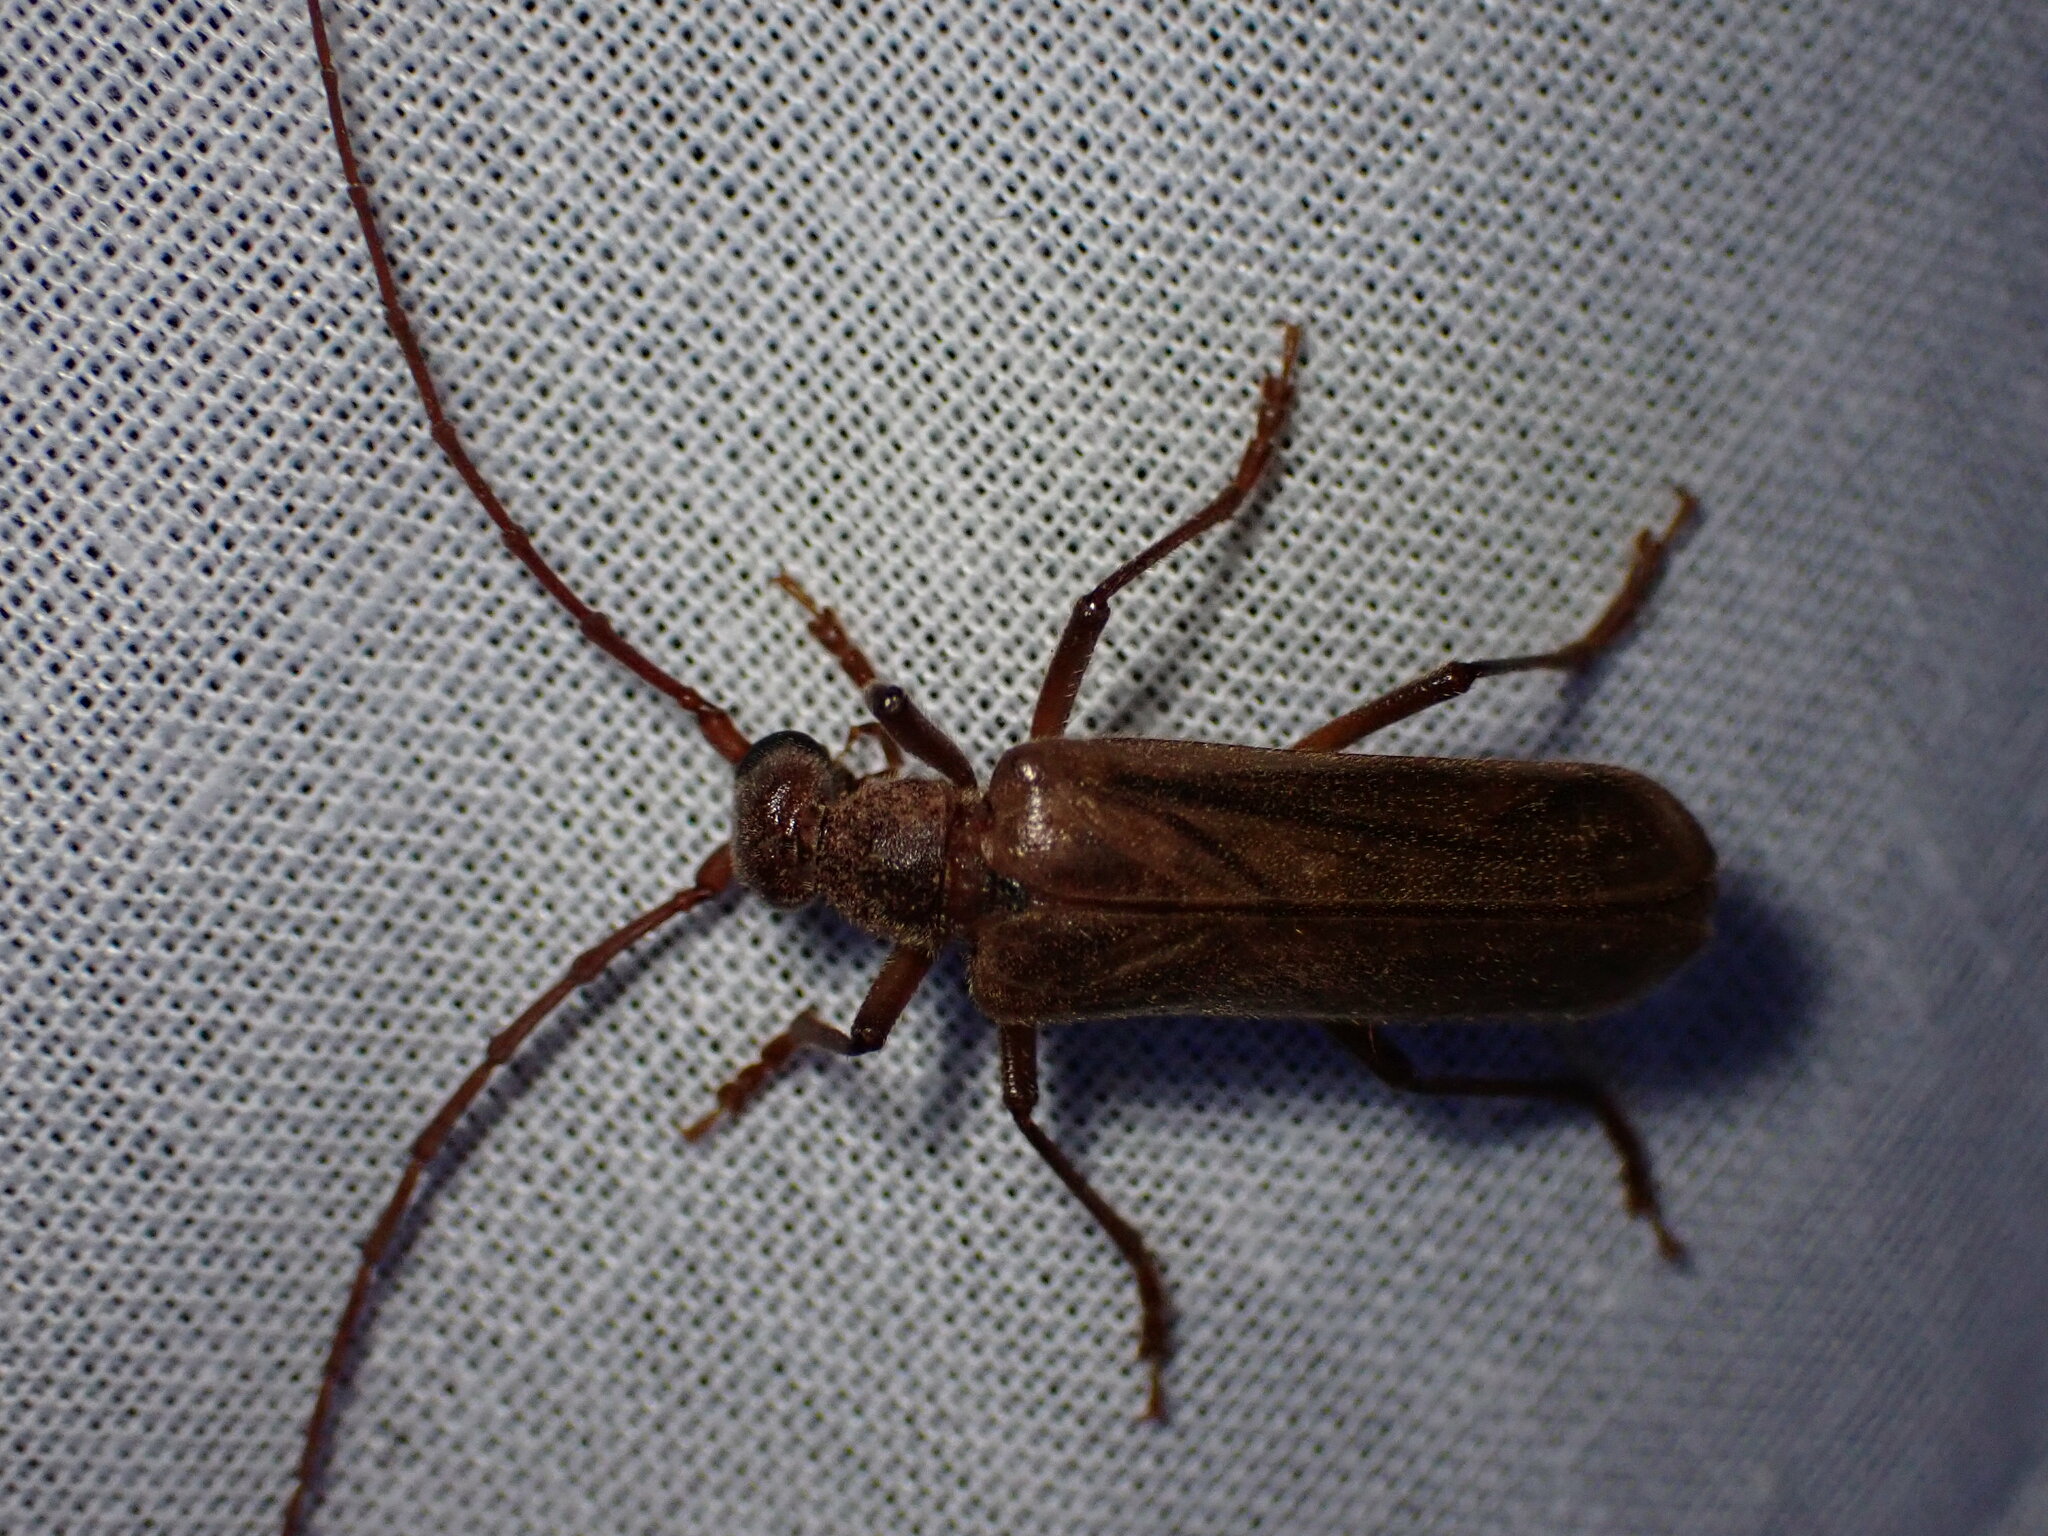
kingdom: Animalia
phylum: Arthropoda
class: Insecta
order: Coleoptera
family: Cerambycidae
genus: Vesperus
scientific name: Vesperus strepens
